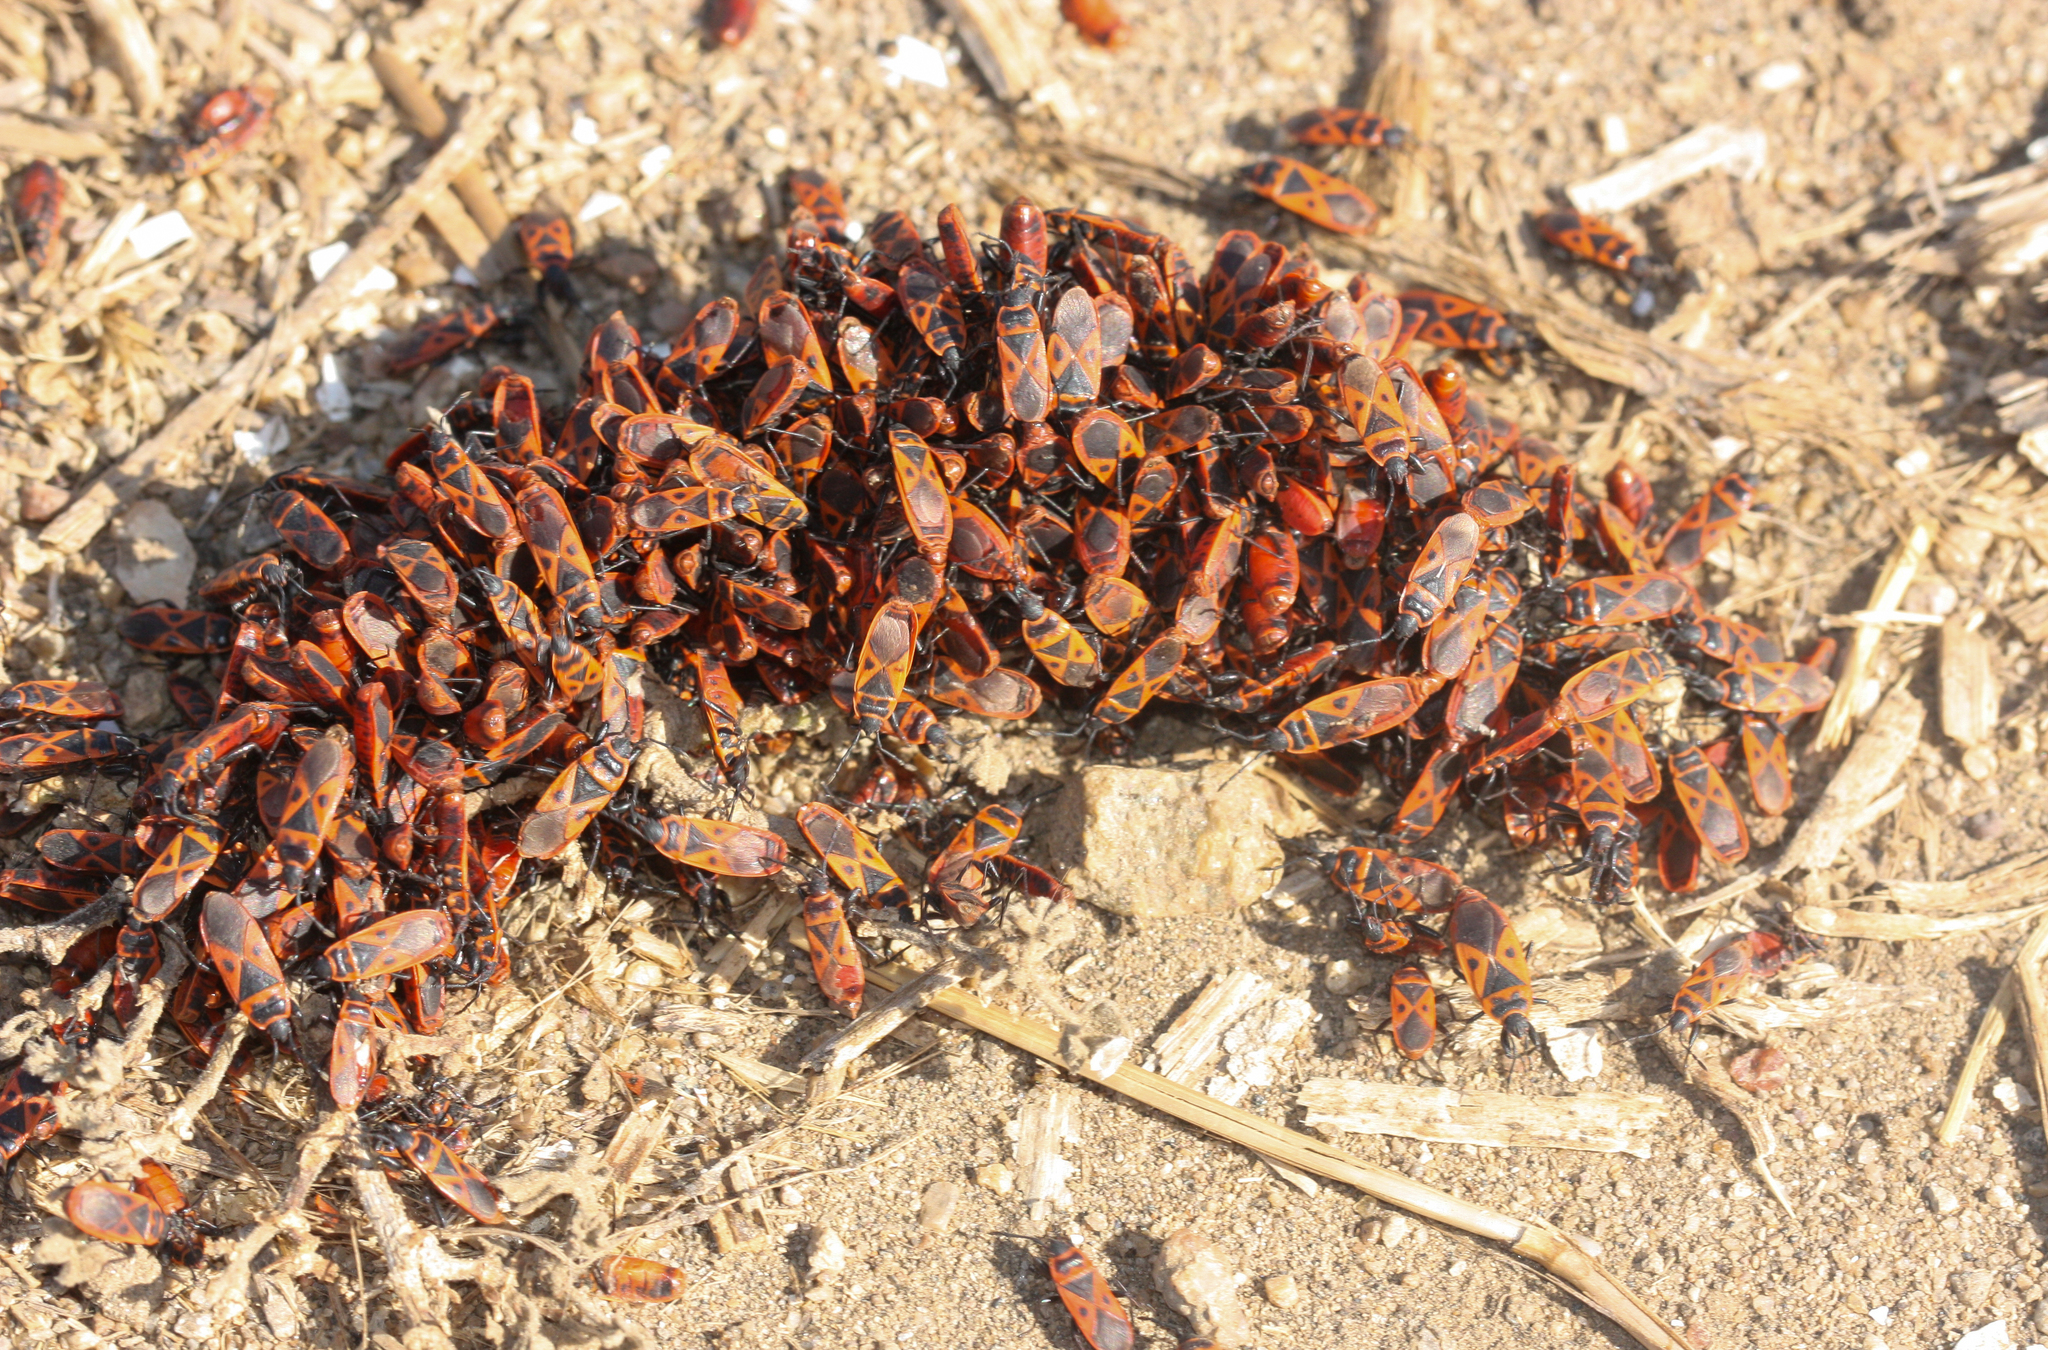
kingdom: Animalia
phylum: Arthropoda
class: Insecta
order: Hemiptera
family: Pyrrhocoridae
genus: Scantius
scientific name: Scantius aegyptius
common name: Red bug
